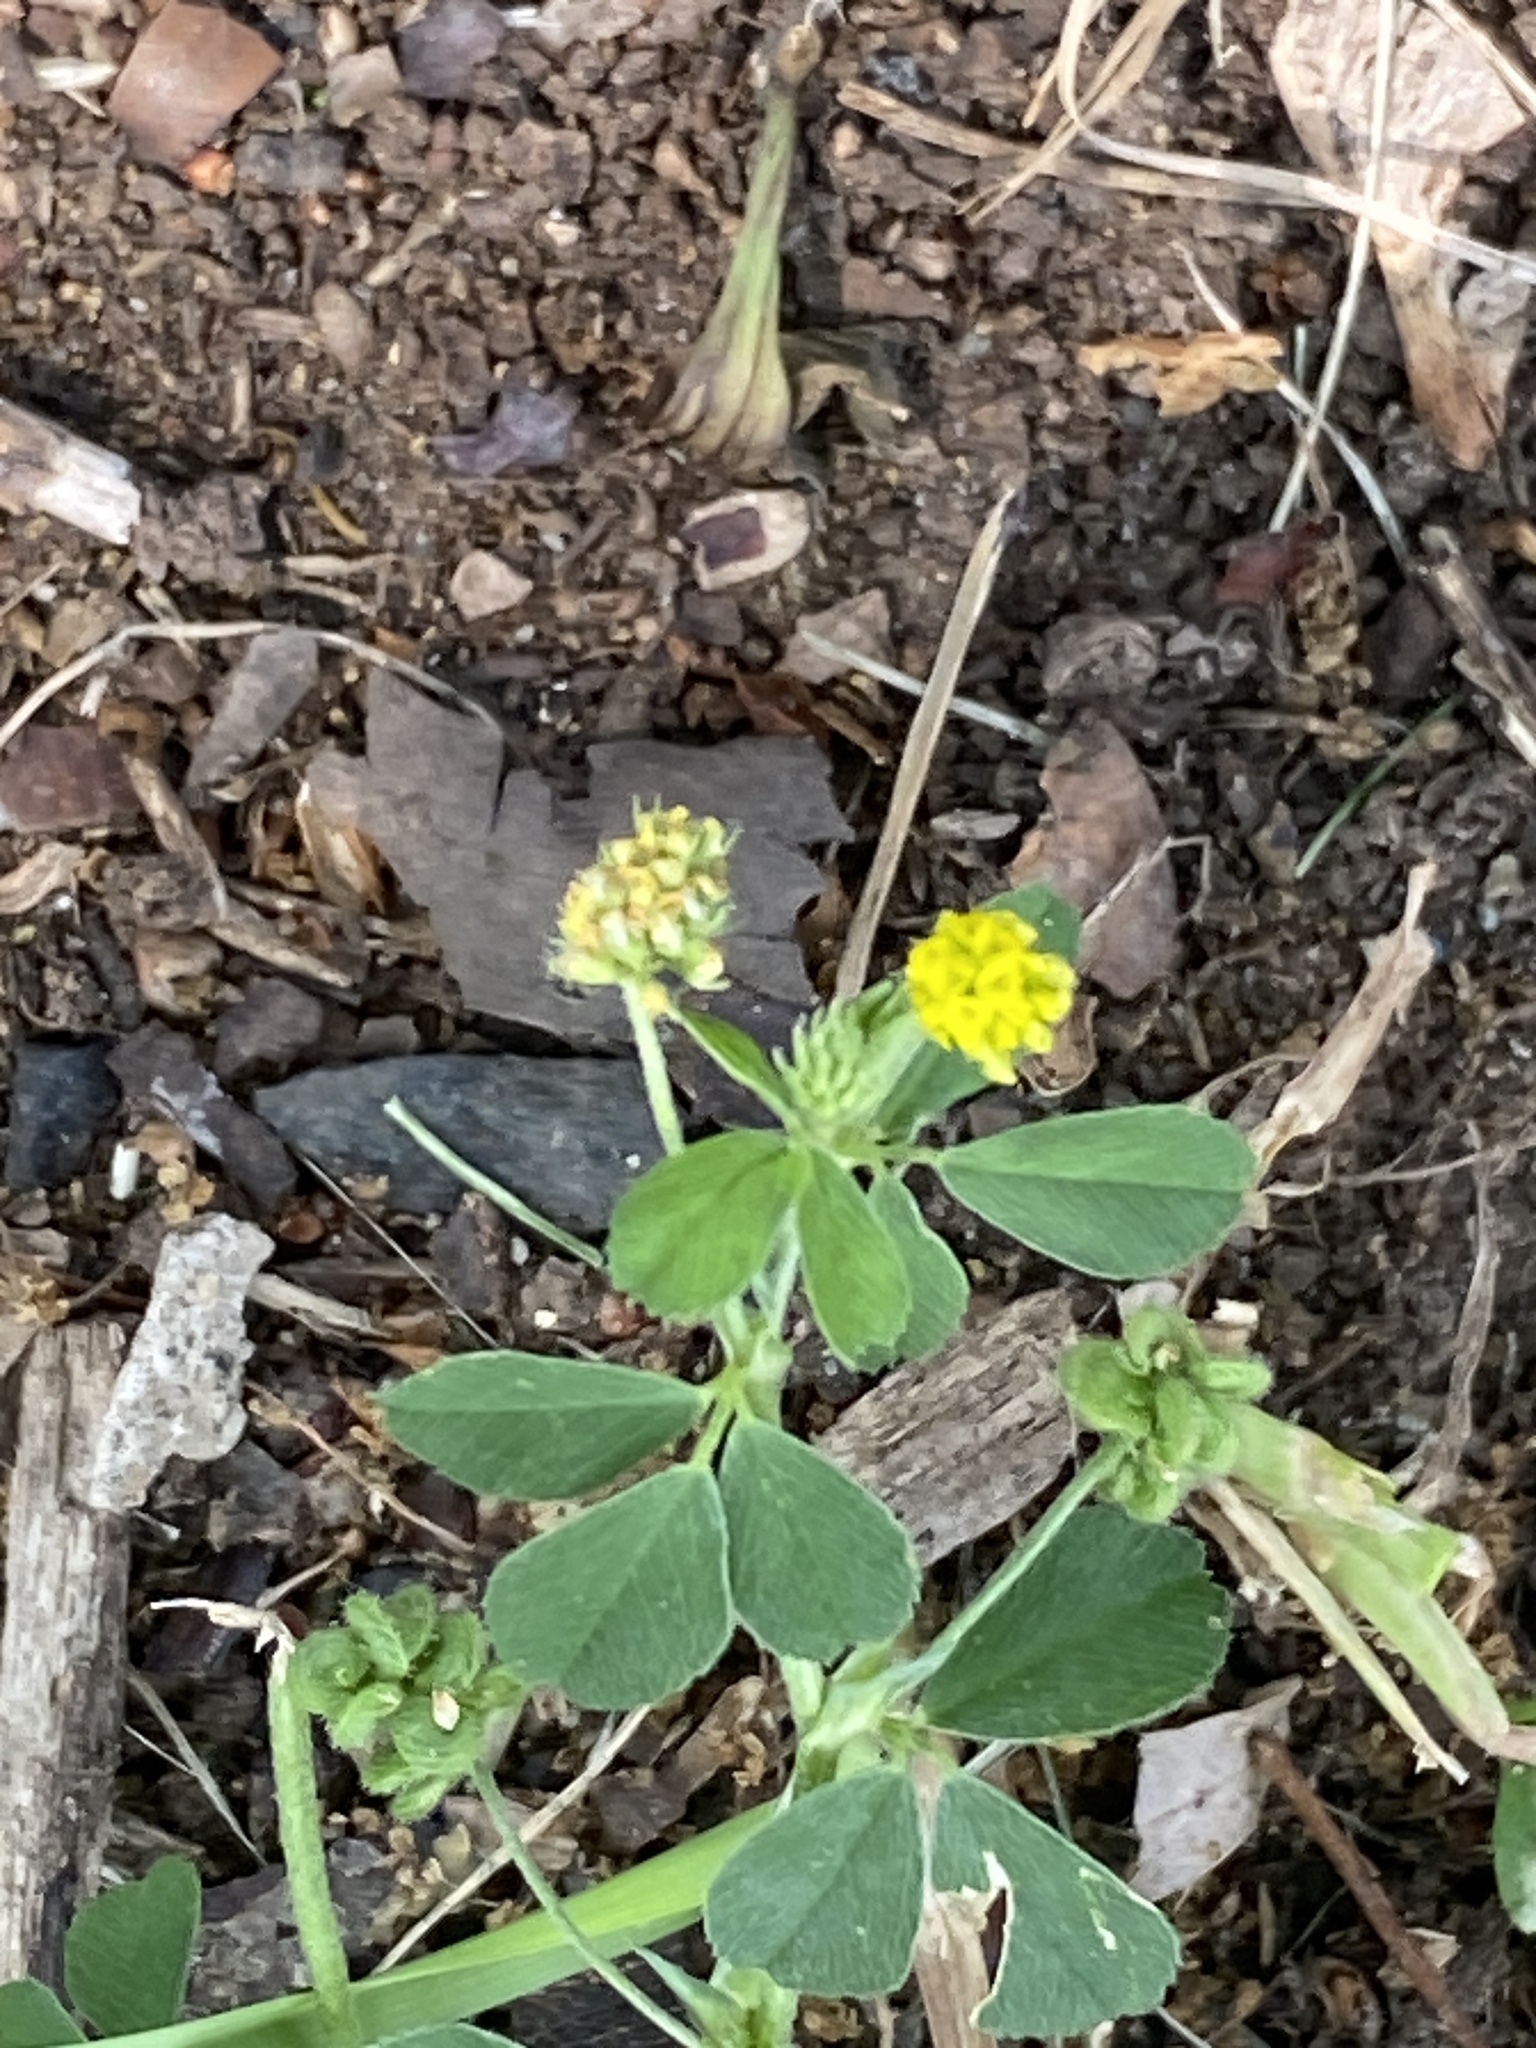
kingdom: Plantae
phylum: Tracheophyta
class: Magnoliopsida
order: Fabales
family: Fabaceae
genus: Medicago
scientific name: Medicago lupulina
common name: Black medick
